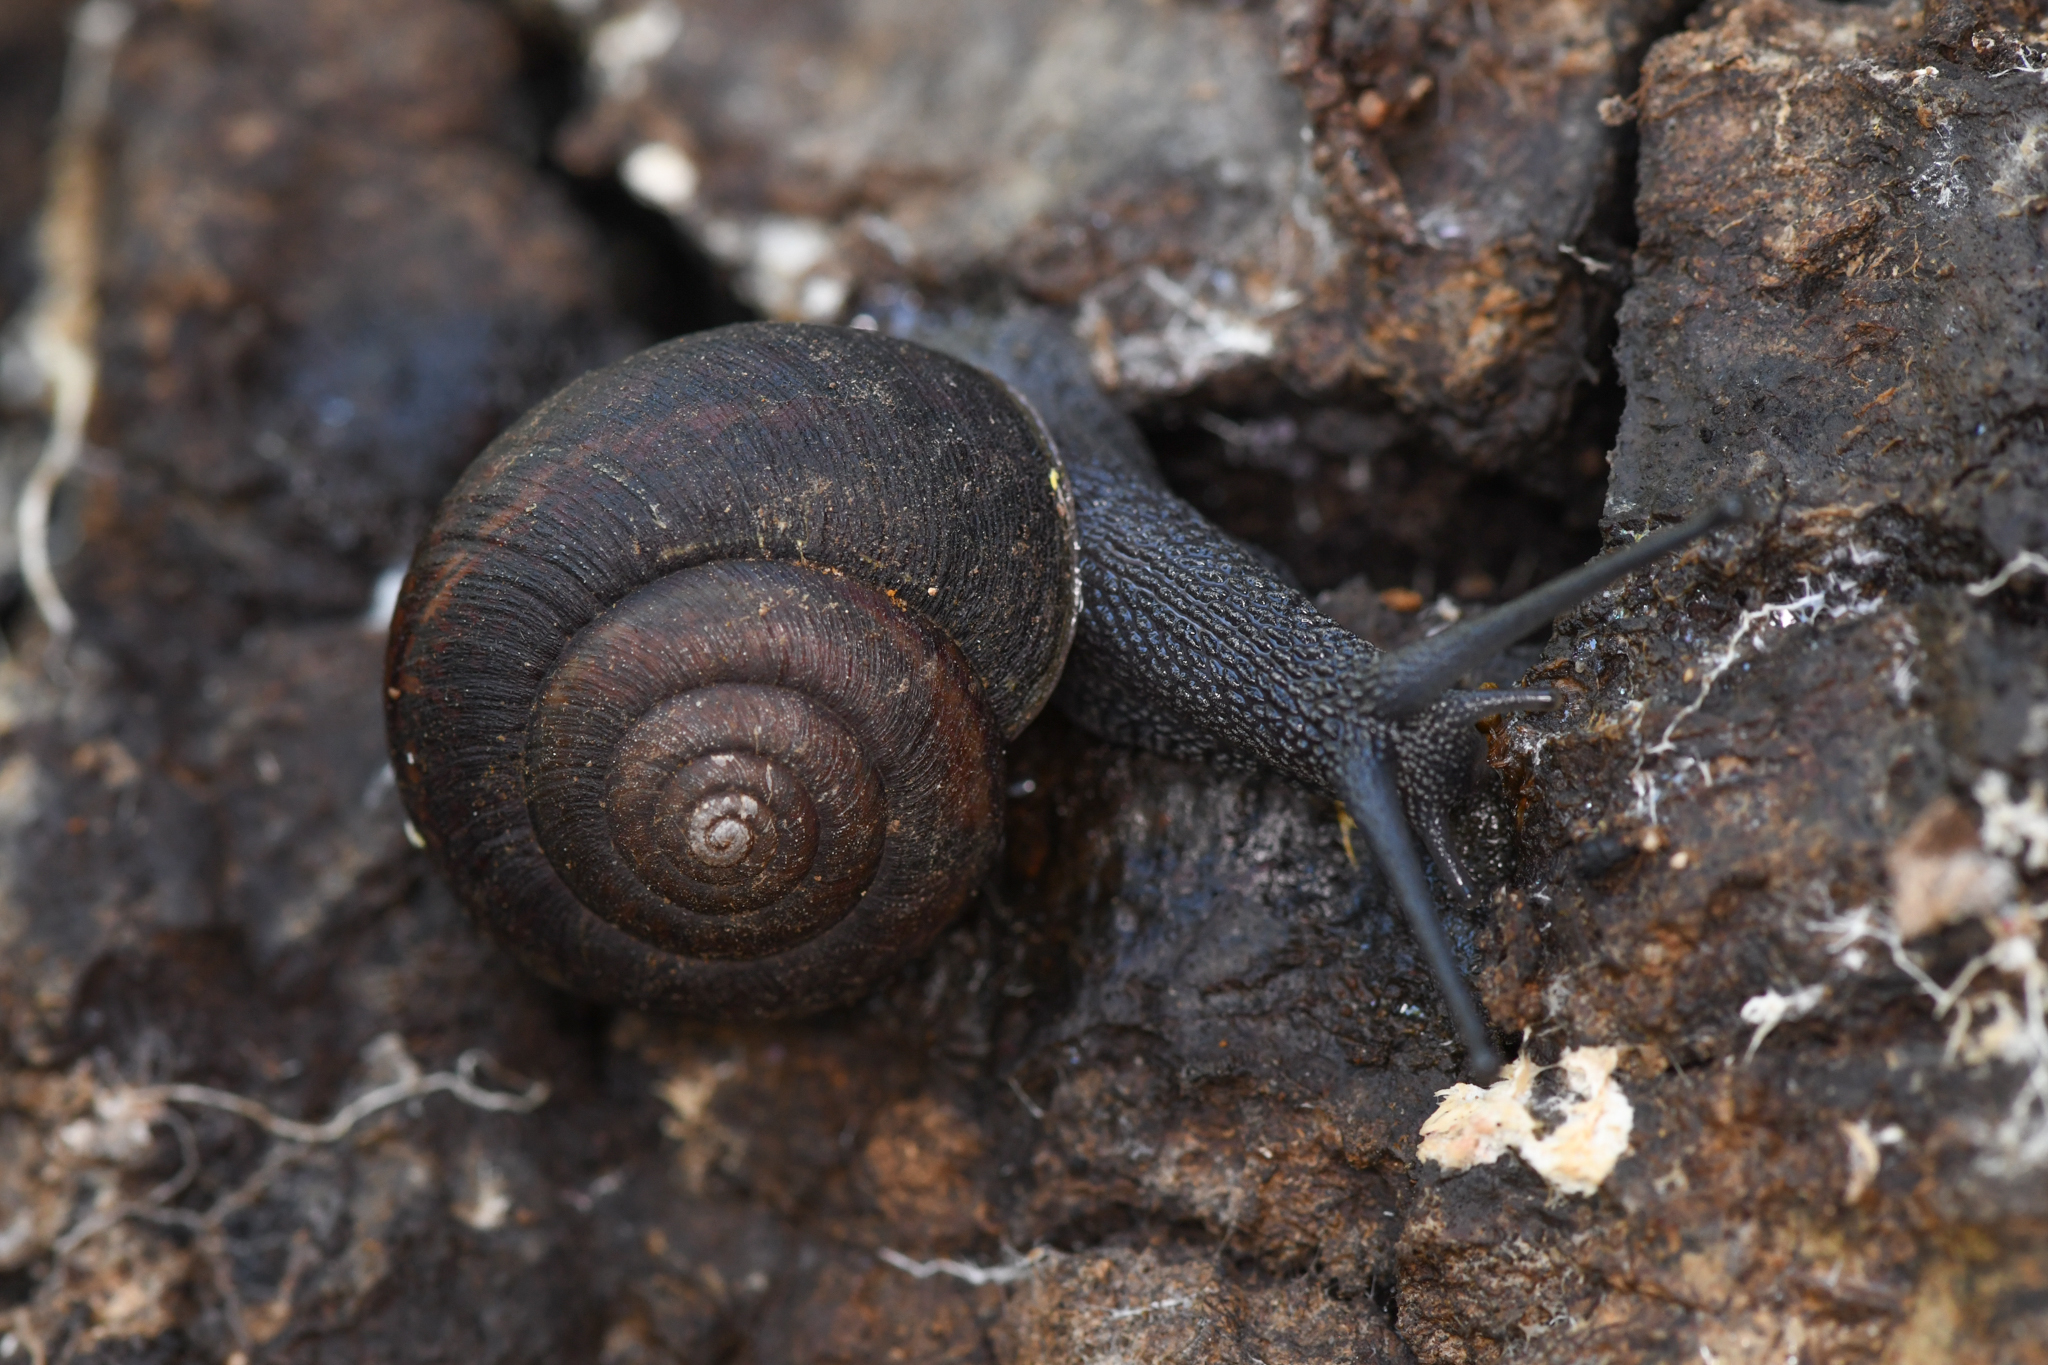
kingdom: Animalia
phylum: Mollusca
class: Gastropoda
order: Stylommatophora
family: Xanthonychidae
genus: Helminthoglypta
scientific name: Helminthoglypta sanctaecrucis
